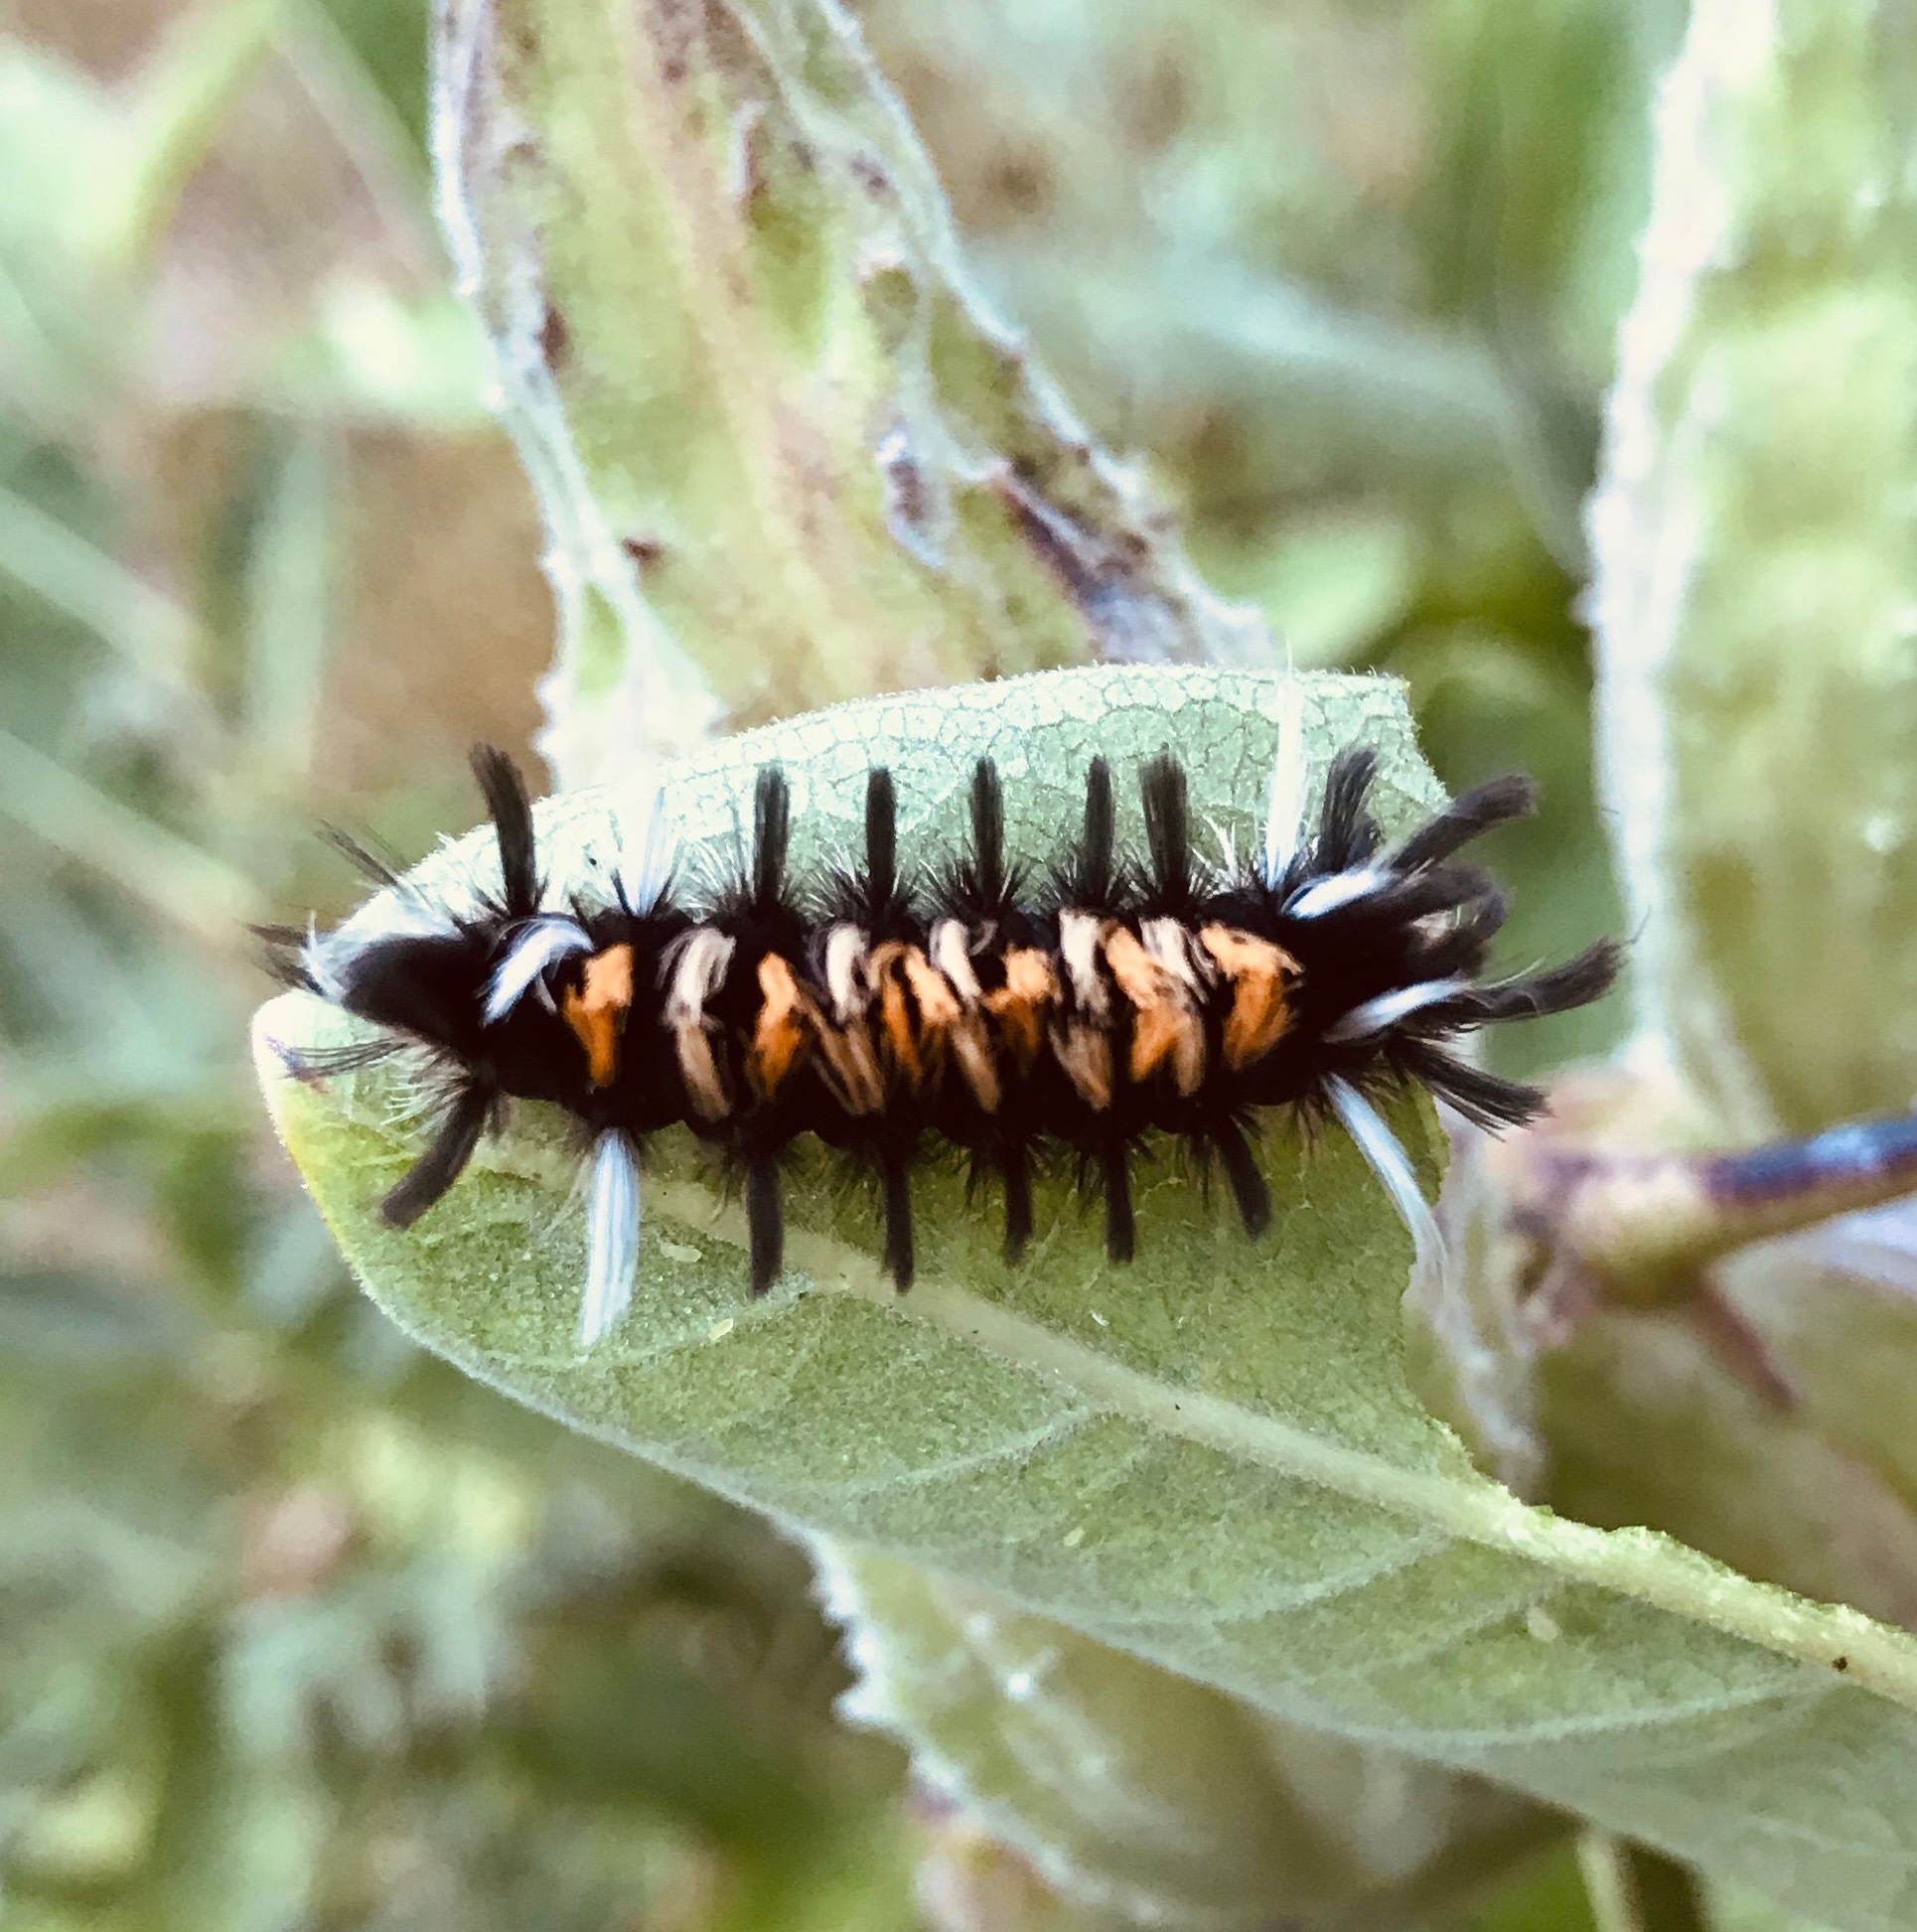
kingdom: Animalia
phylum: Arthropoda
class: Insecta
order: Lepidoptera
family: Erebidae
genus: Euchaetes
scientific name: Euchaetes egle
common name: Milkweed tussock moth
